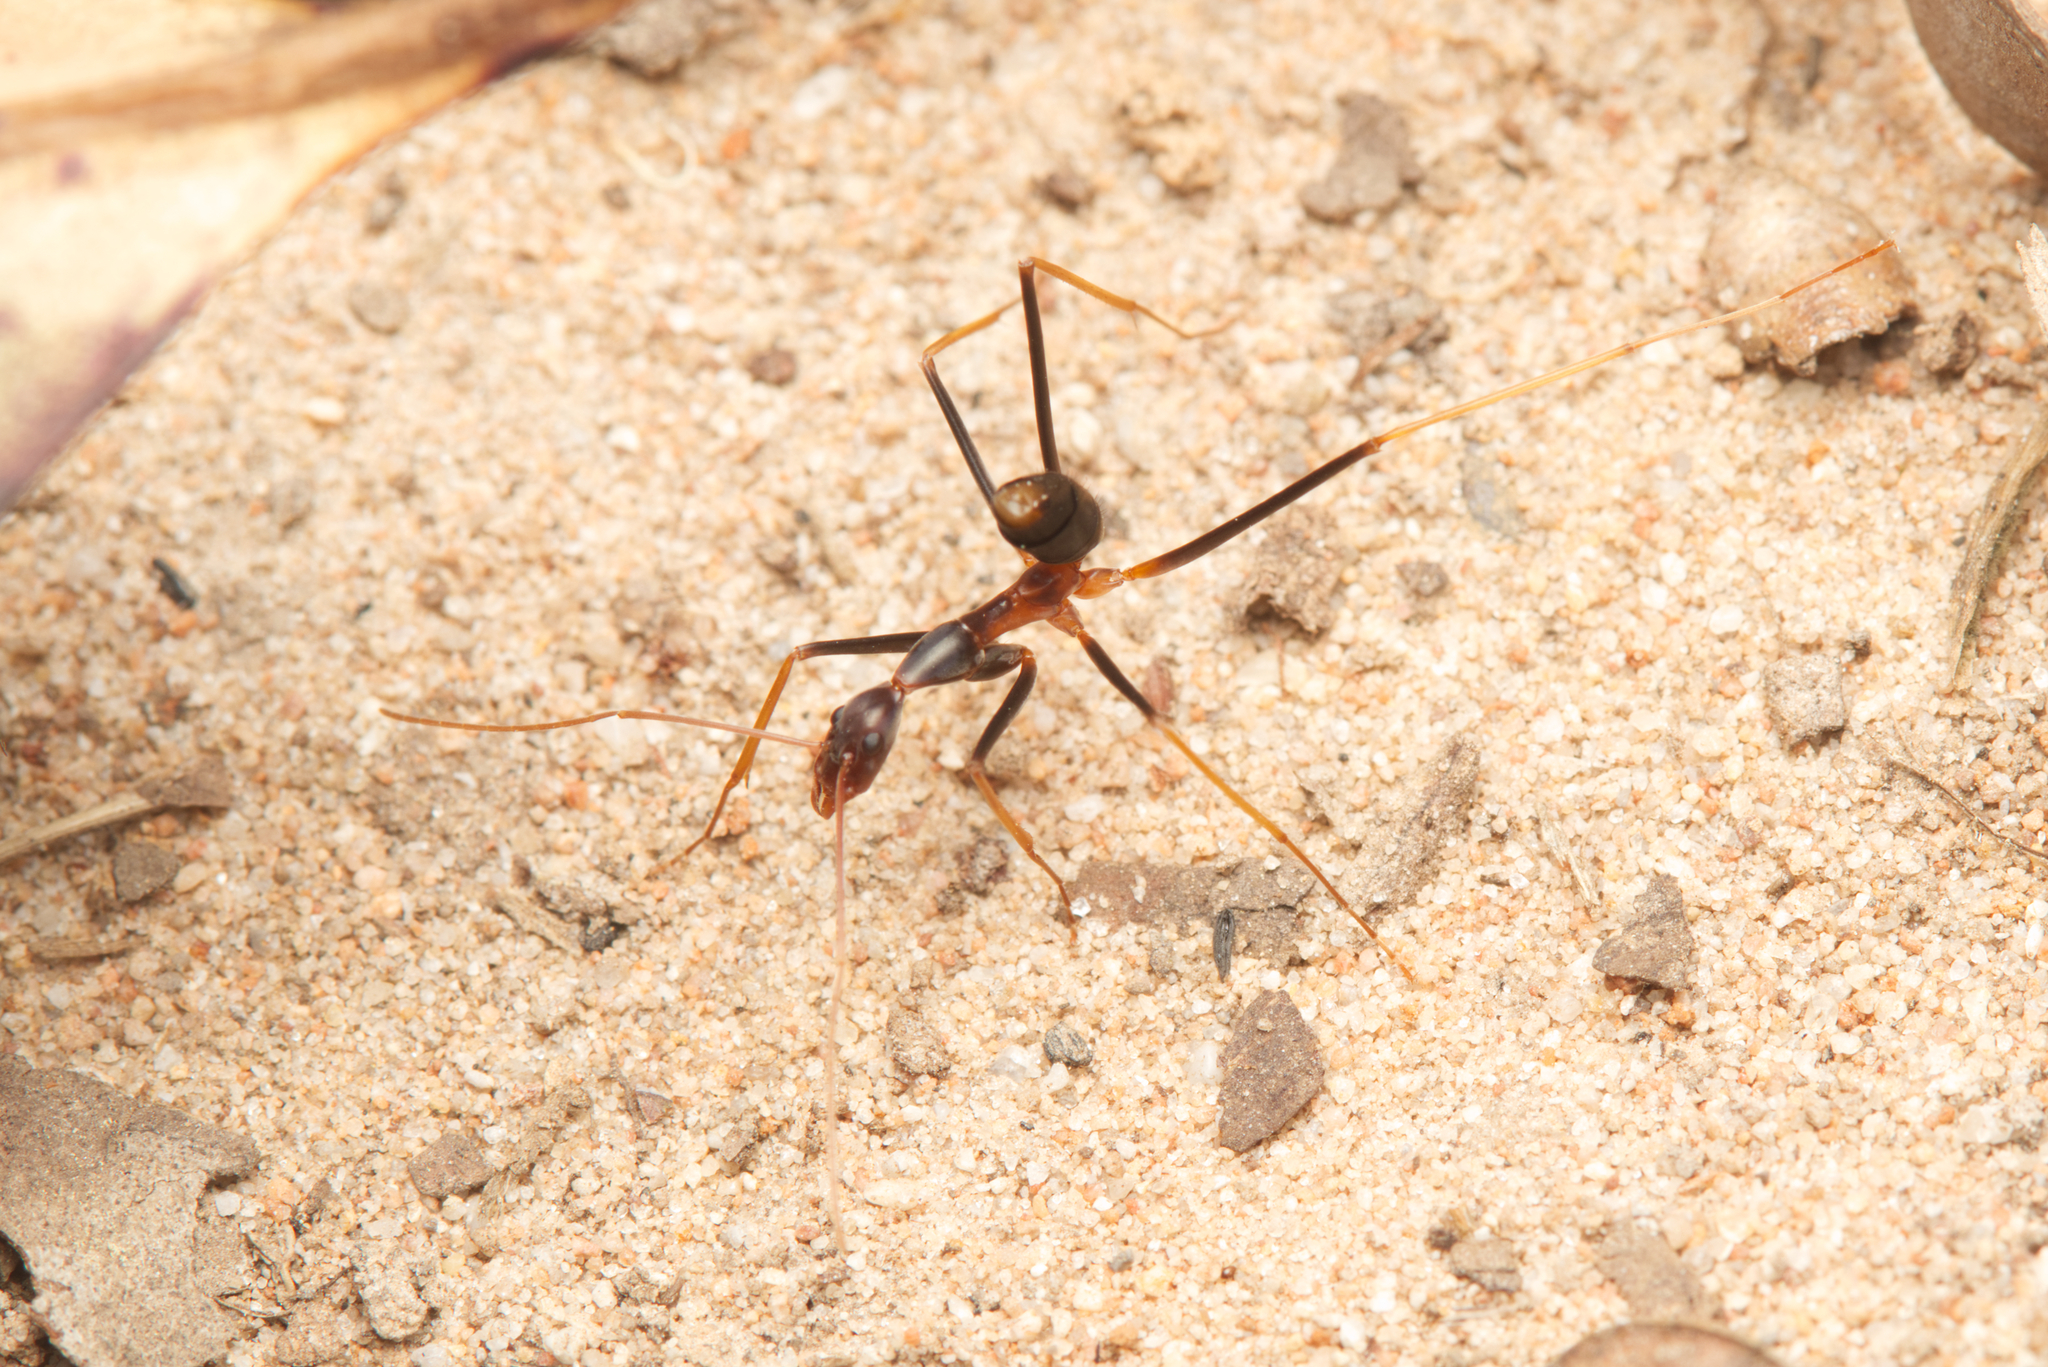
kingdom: Animalia
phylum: Arthropoda
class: Insecta
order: Hymenoptera
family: Formicidae
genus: Leptomyrmex
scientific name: Leptomyrmex rothneyi
